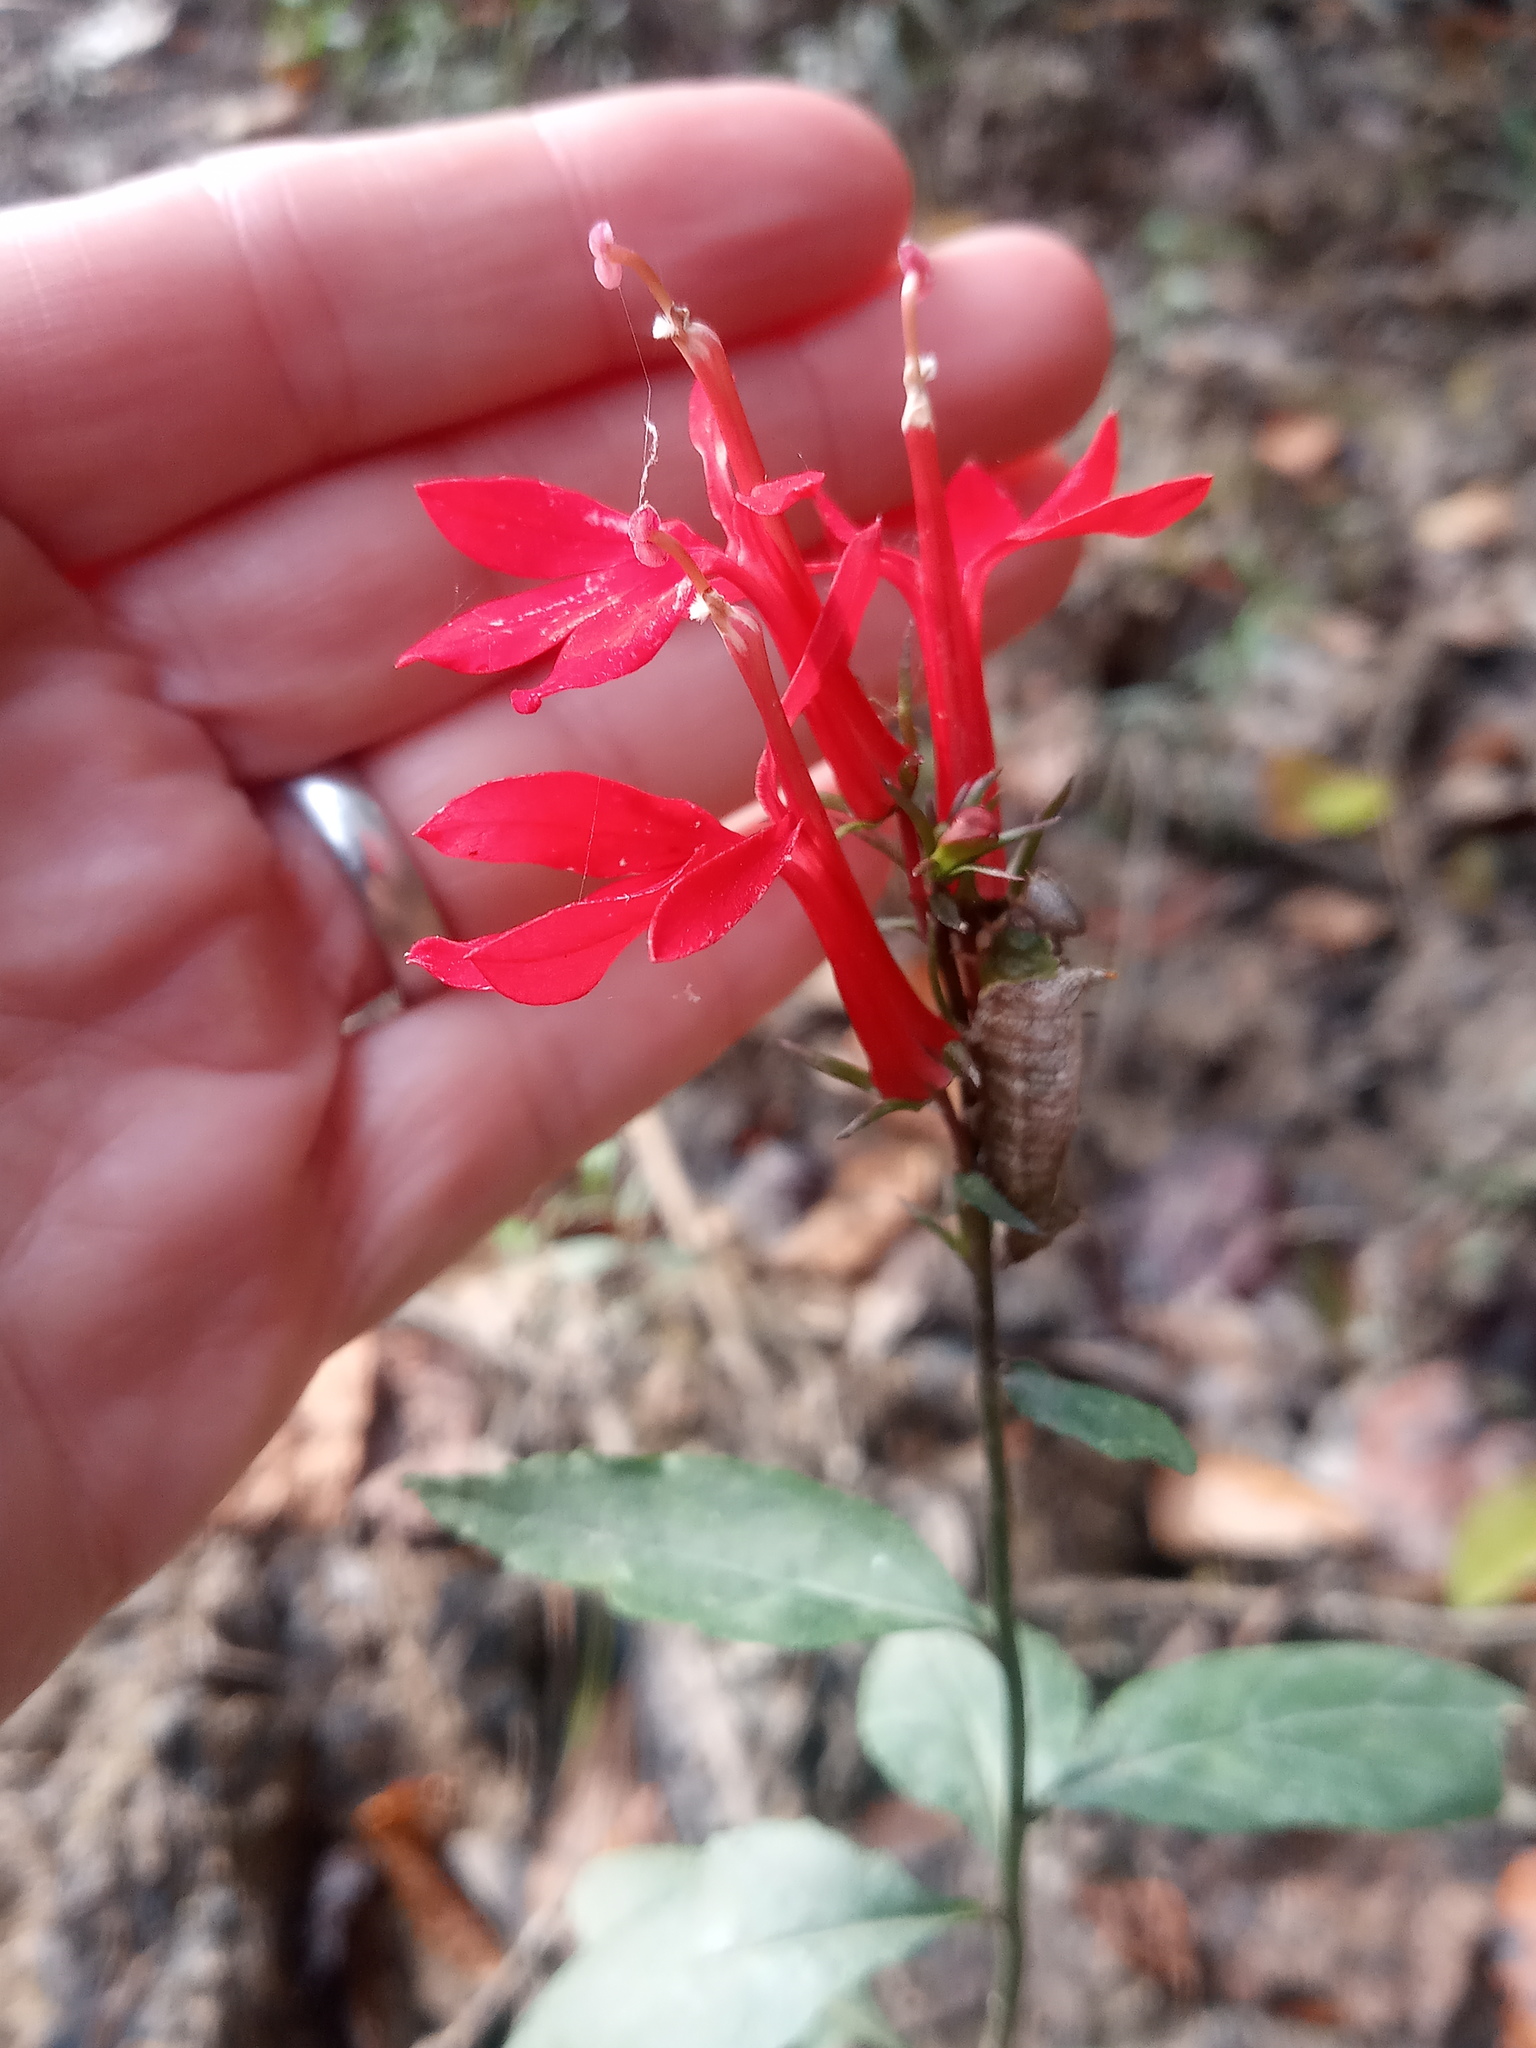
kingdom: Plantae
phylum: Tracheophyta
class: Magnoliopsida
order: Asterales
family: Campanulaceae
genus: Lobelia
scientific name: Lobelia cardinalis
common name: Cardinal flower
